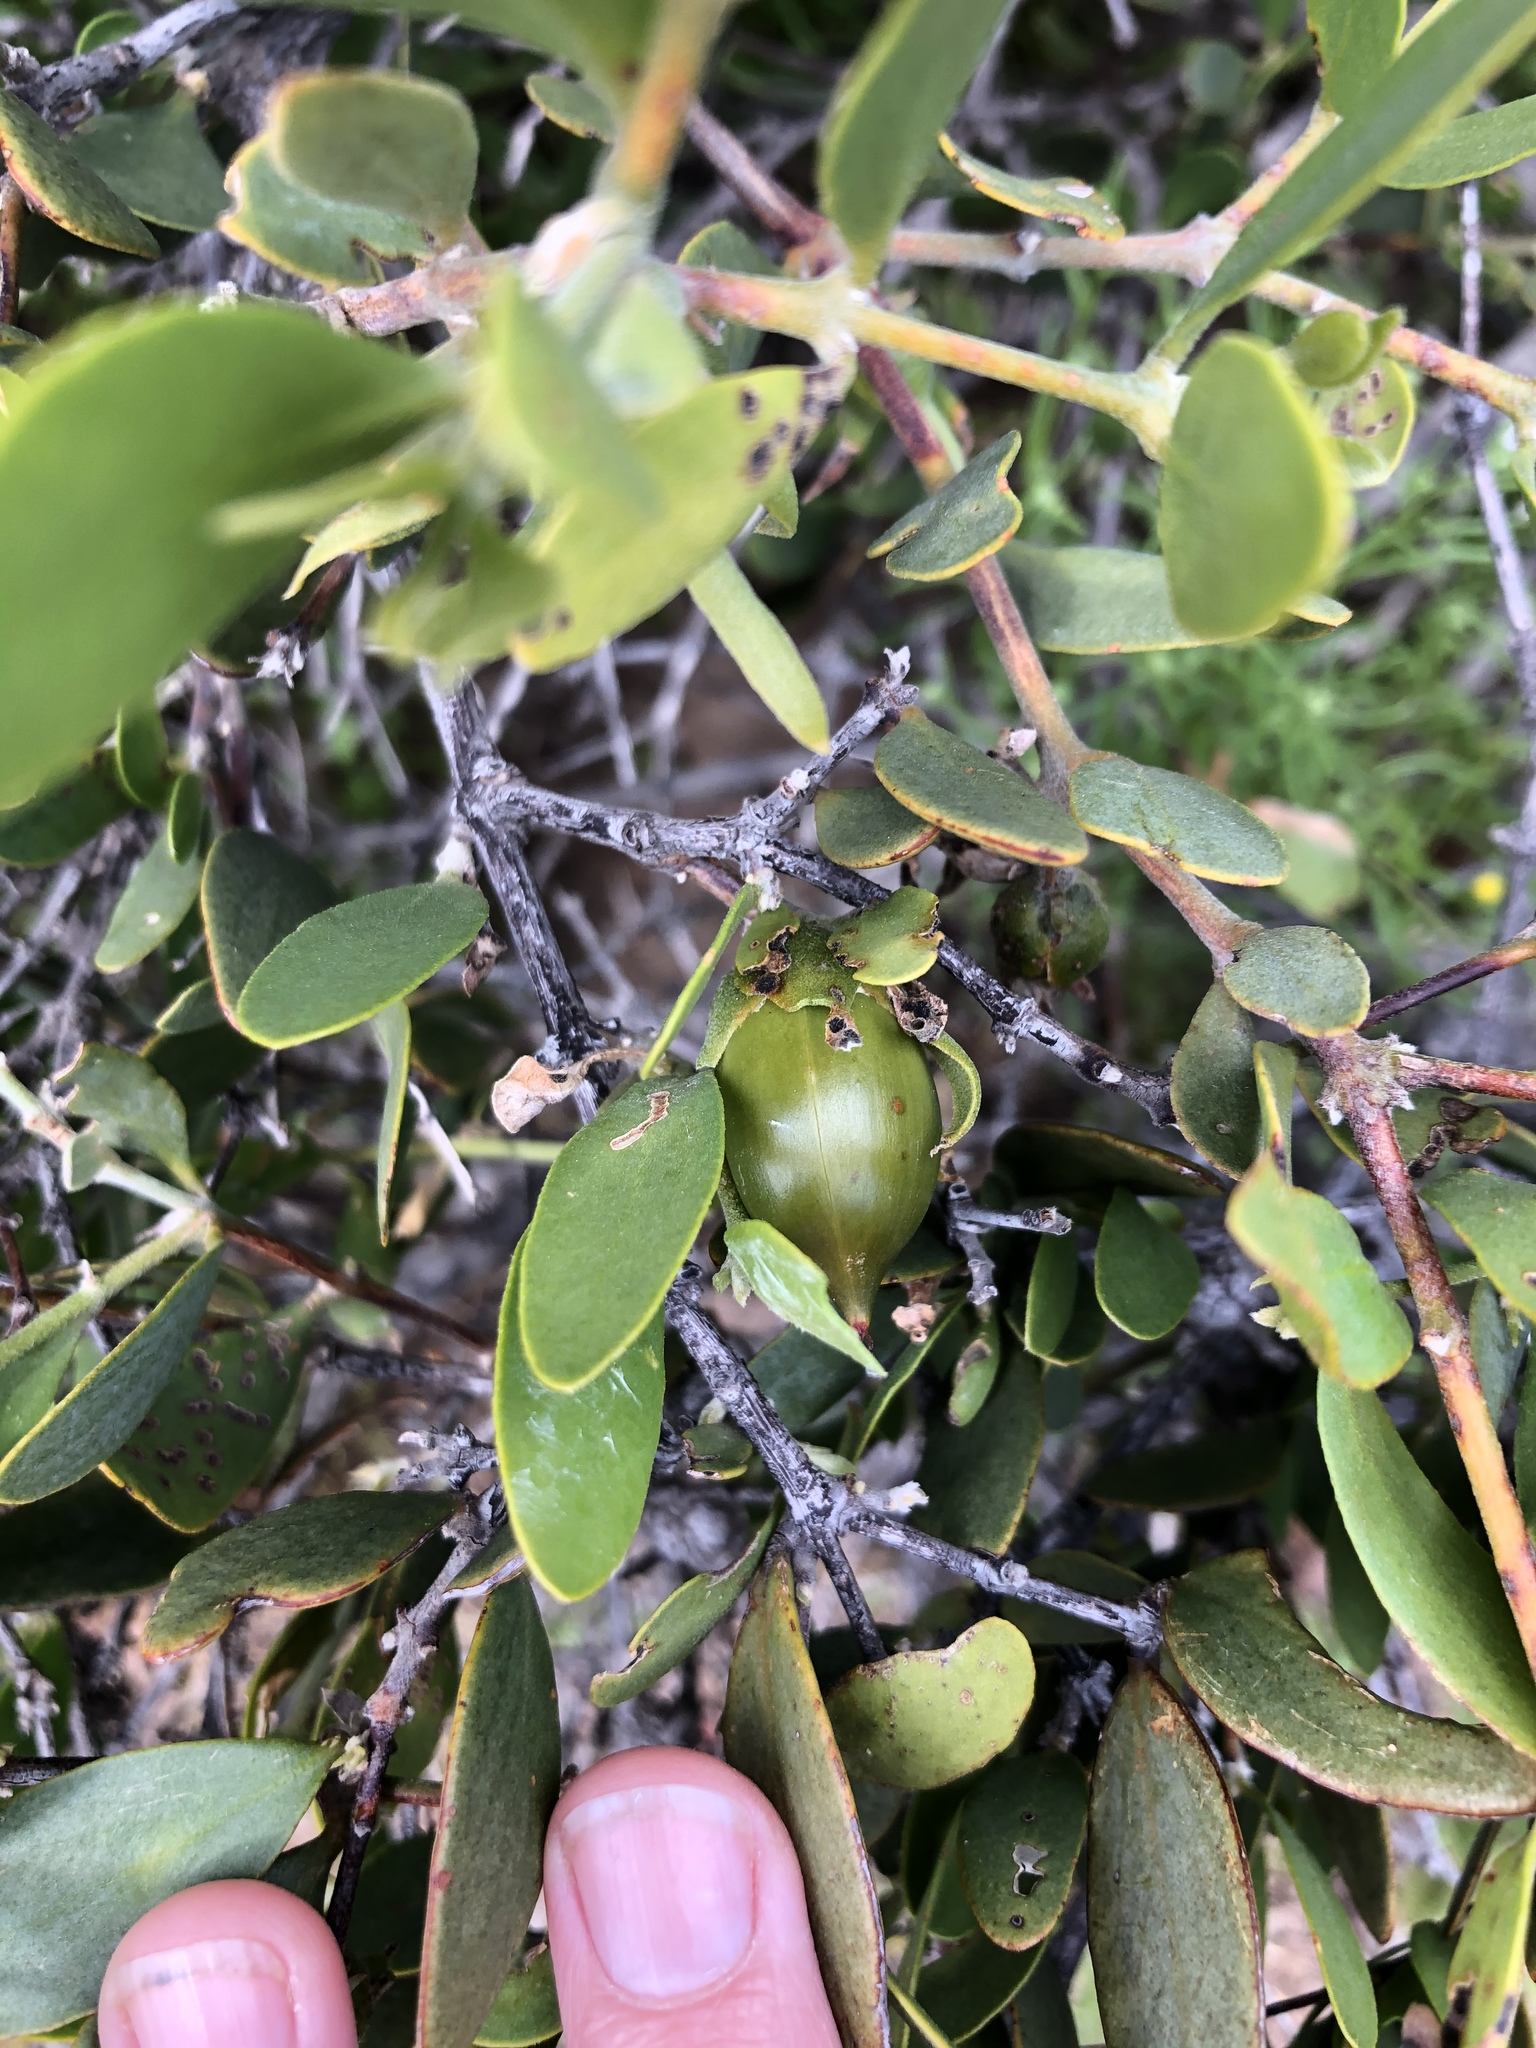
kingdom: Plantae
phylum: Tracheophyta
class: Magnoliopsida
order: Caryophyllales
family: Simmondsiaceae
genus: Simmondsia
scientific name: Simmondsia chinensis
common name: Jojoba
